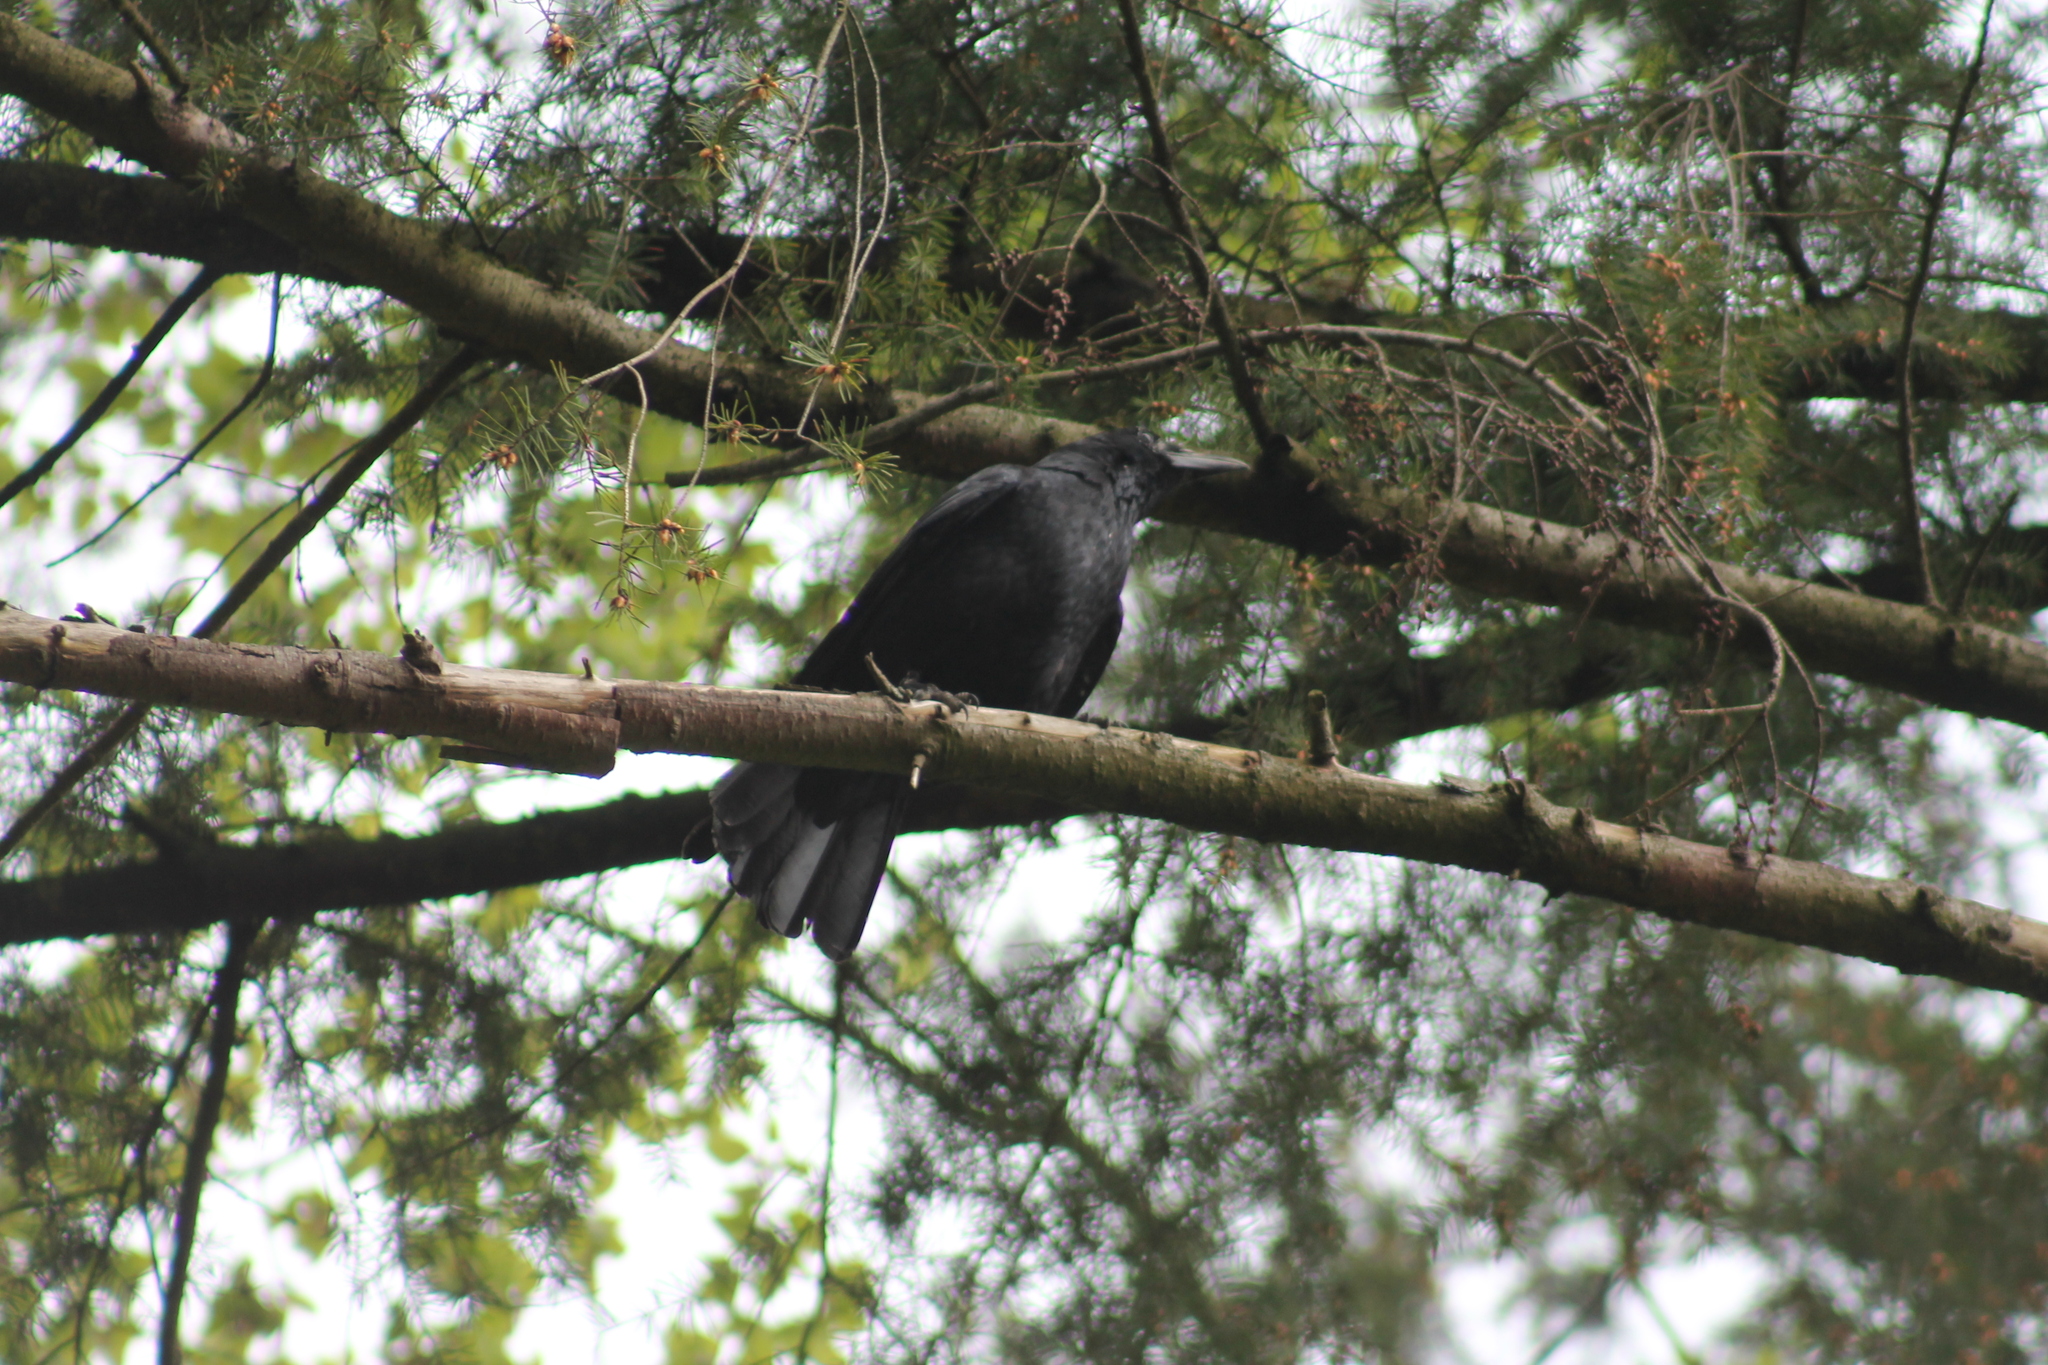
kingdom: Animalia
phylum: Chordata
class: Aves
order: Passeriformes
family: Corvidae
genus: Corvus
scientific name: Corvus corone
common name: Carrion crow
